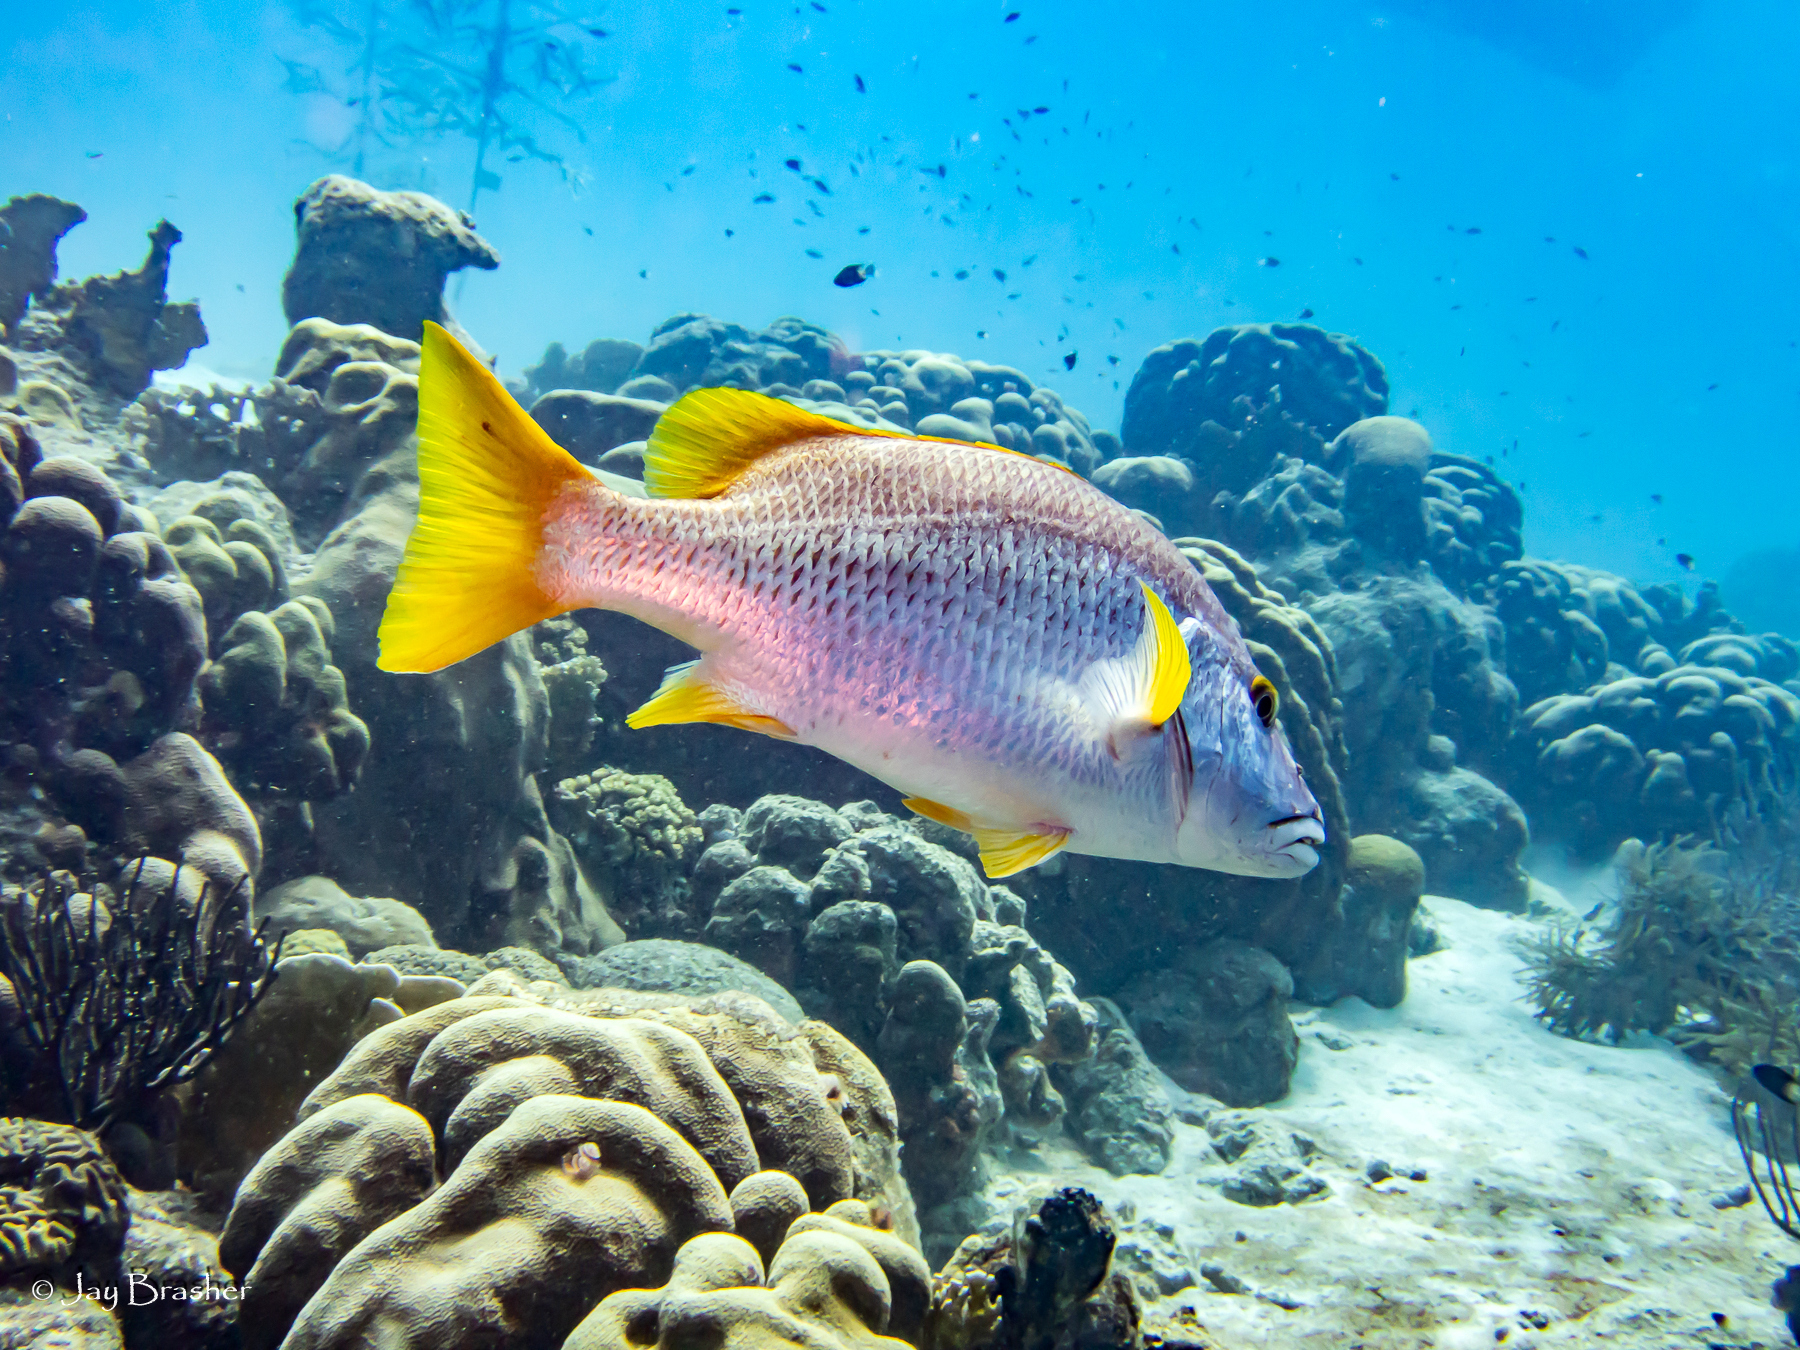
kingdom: Animalia
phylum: Chordata
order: Perciformes
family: Lutjanidae
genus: Lutjanus
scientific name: Lutjanus apodus
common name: Schoolmaster
